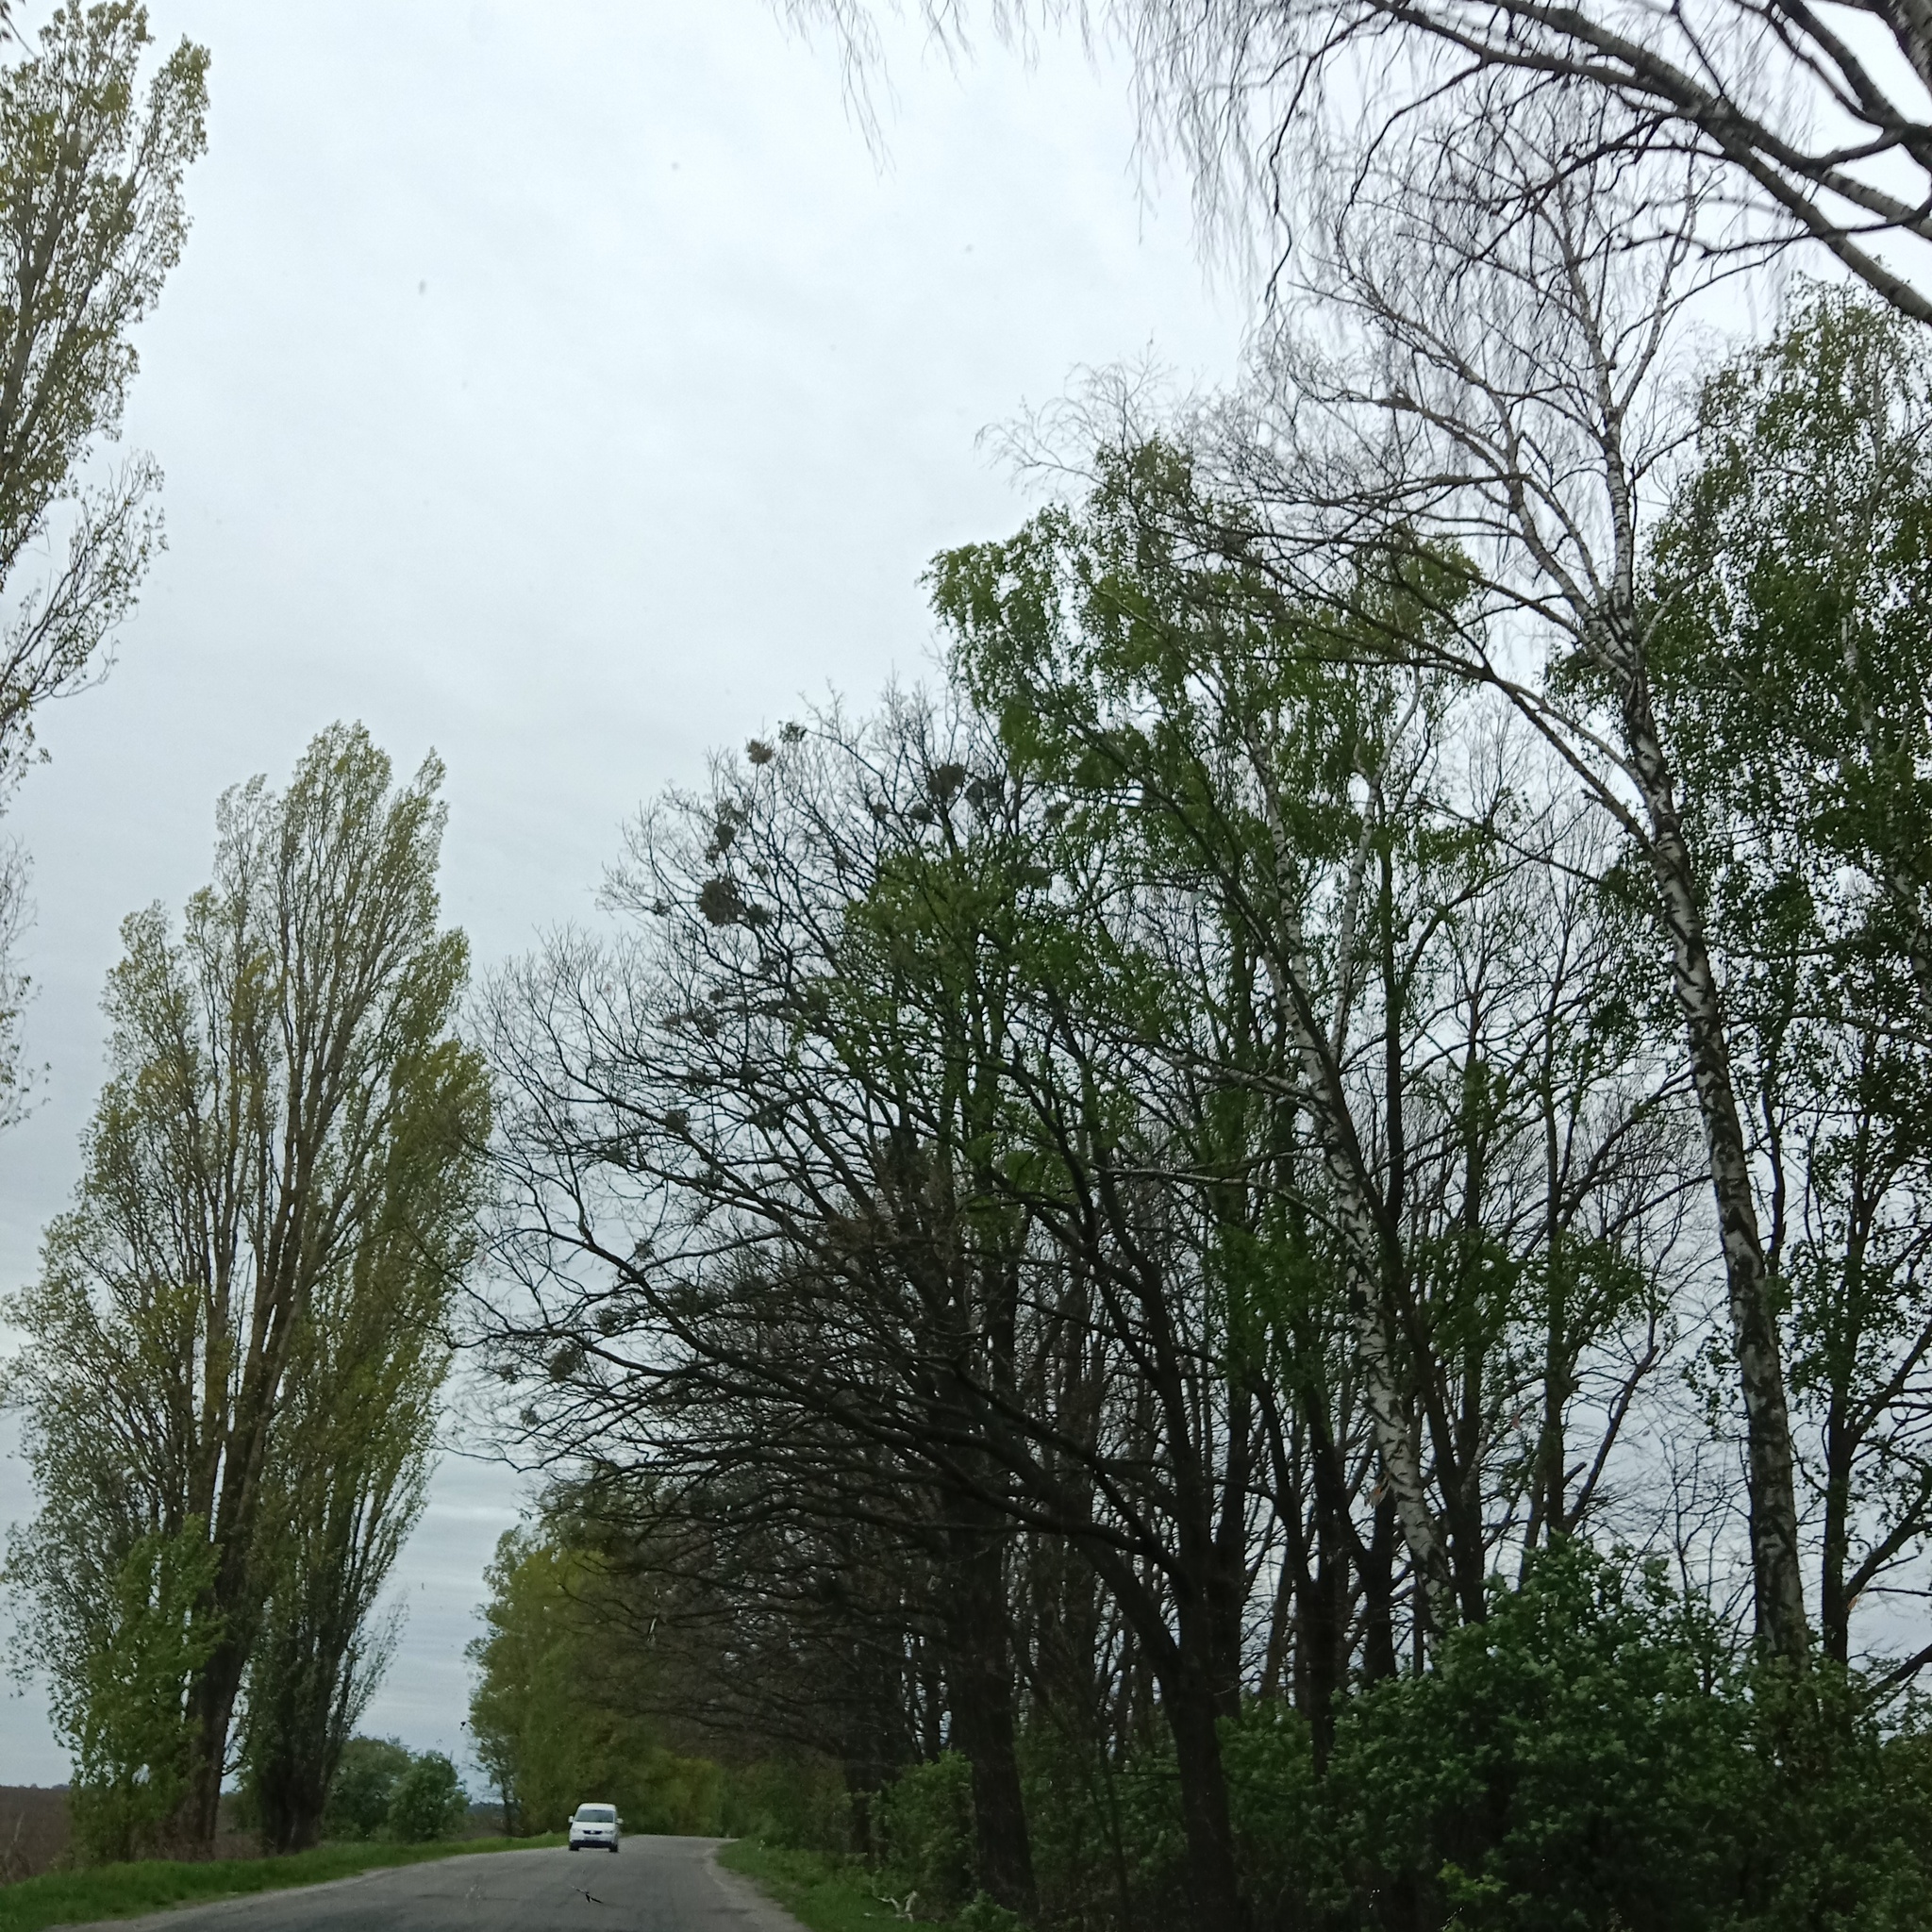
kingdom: Plantae
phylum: Tracheophyta
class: Magnoliopsida
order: Santalales
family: Viscaceae
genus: Viscum
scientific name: Viscum album
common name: Mistletoe
